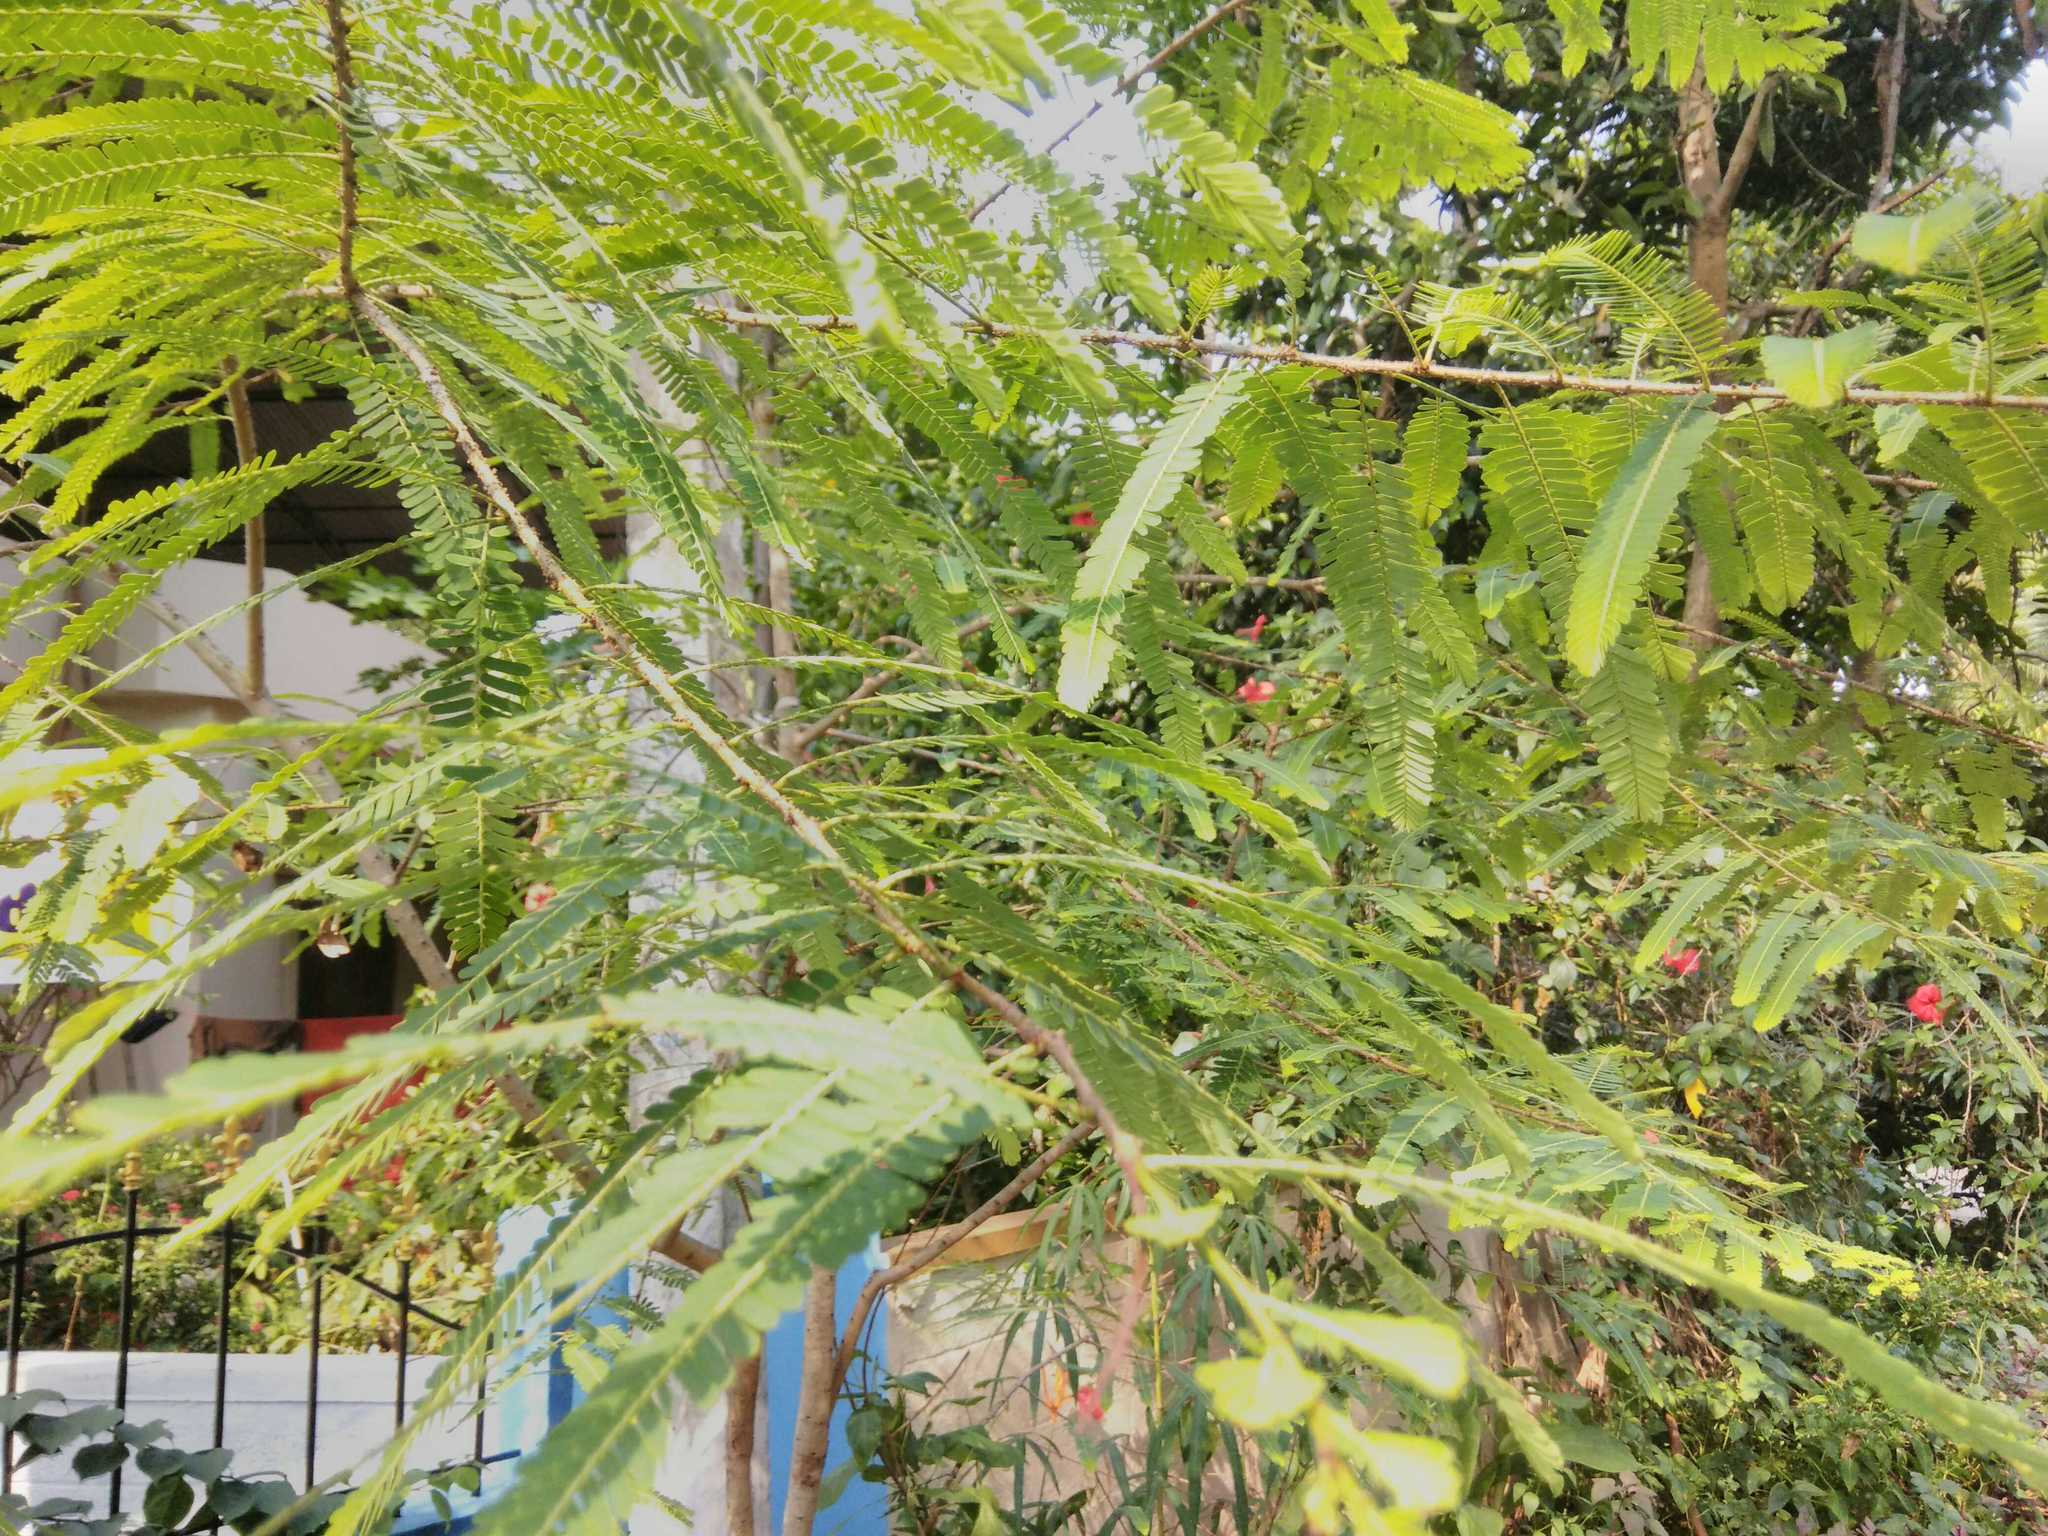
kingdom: Plantae
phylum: Tracheophyta
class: Magnoliopsida
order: Malpighiales
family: Phyllanthaceae
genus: Phyllanthus
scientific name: Phyllanthus emblica
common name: Indian gooseberry
